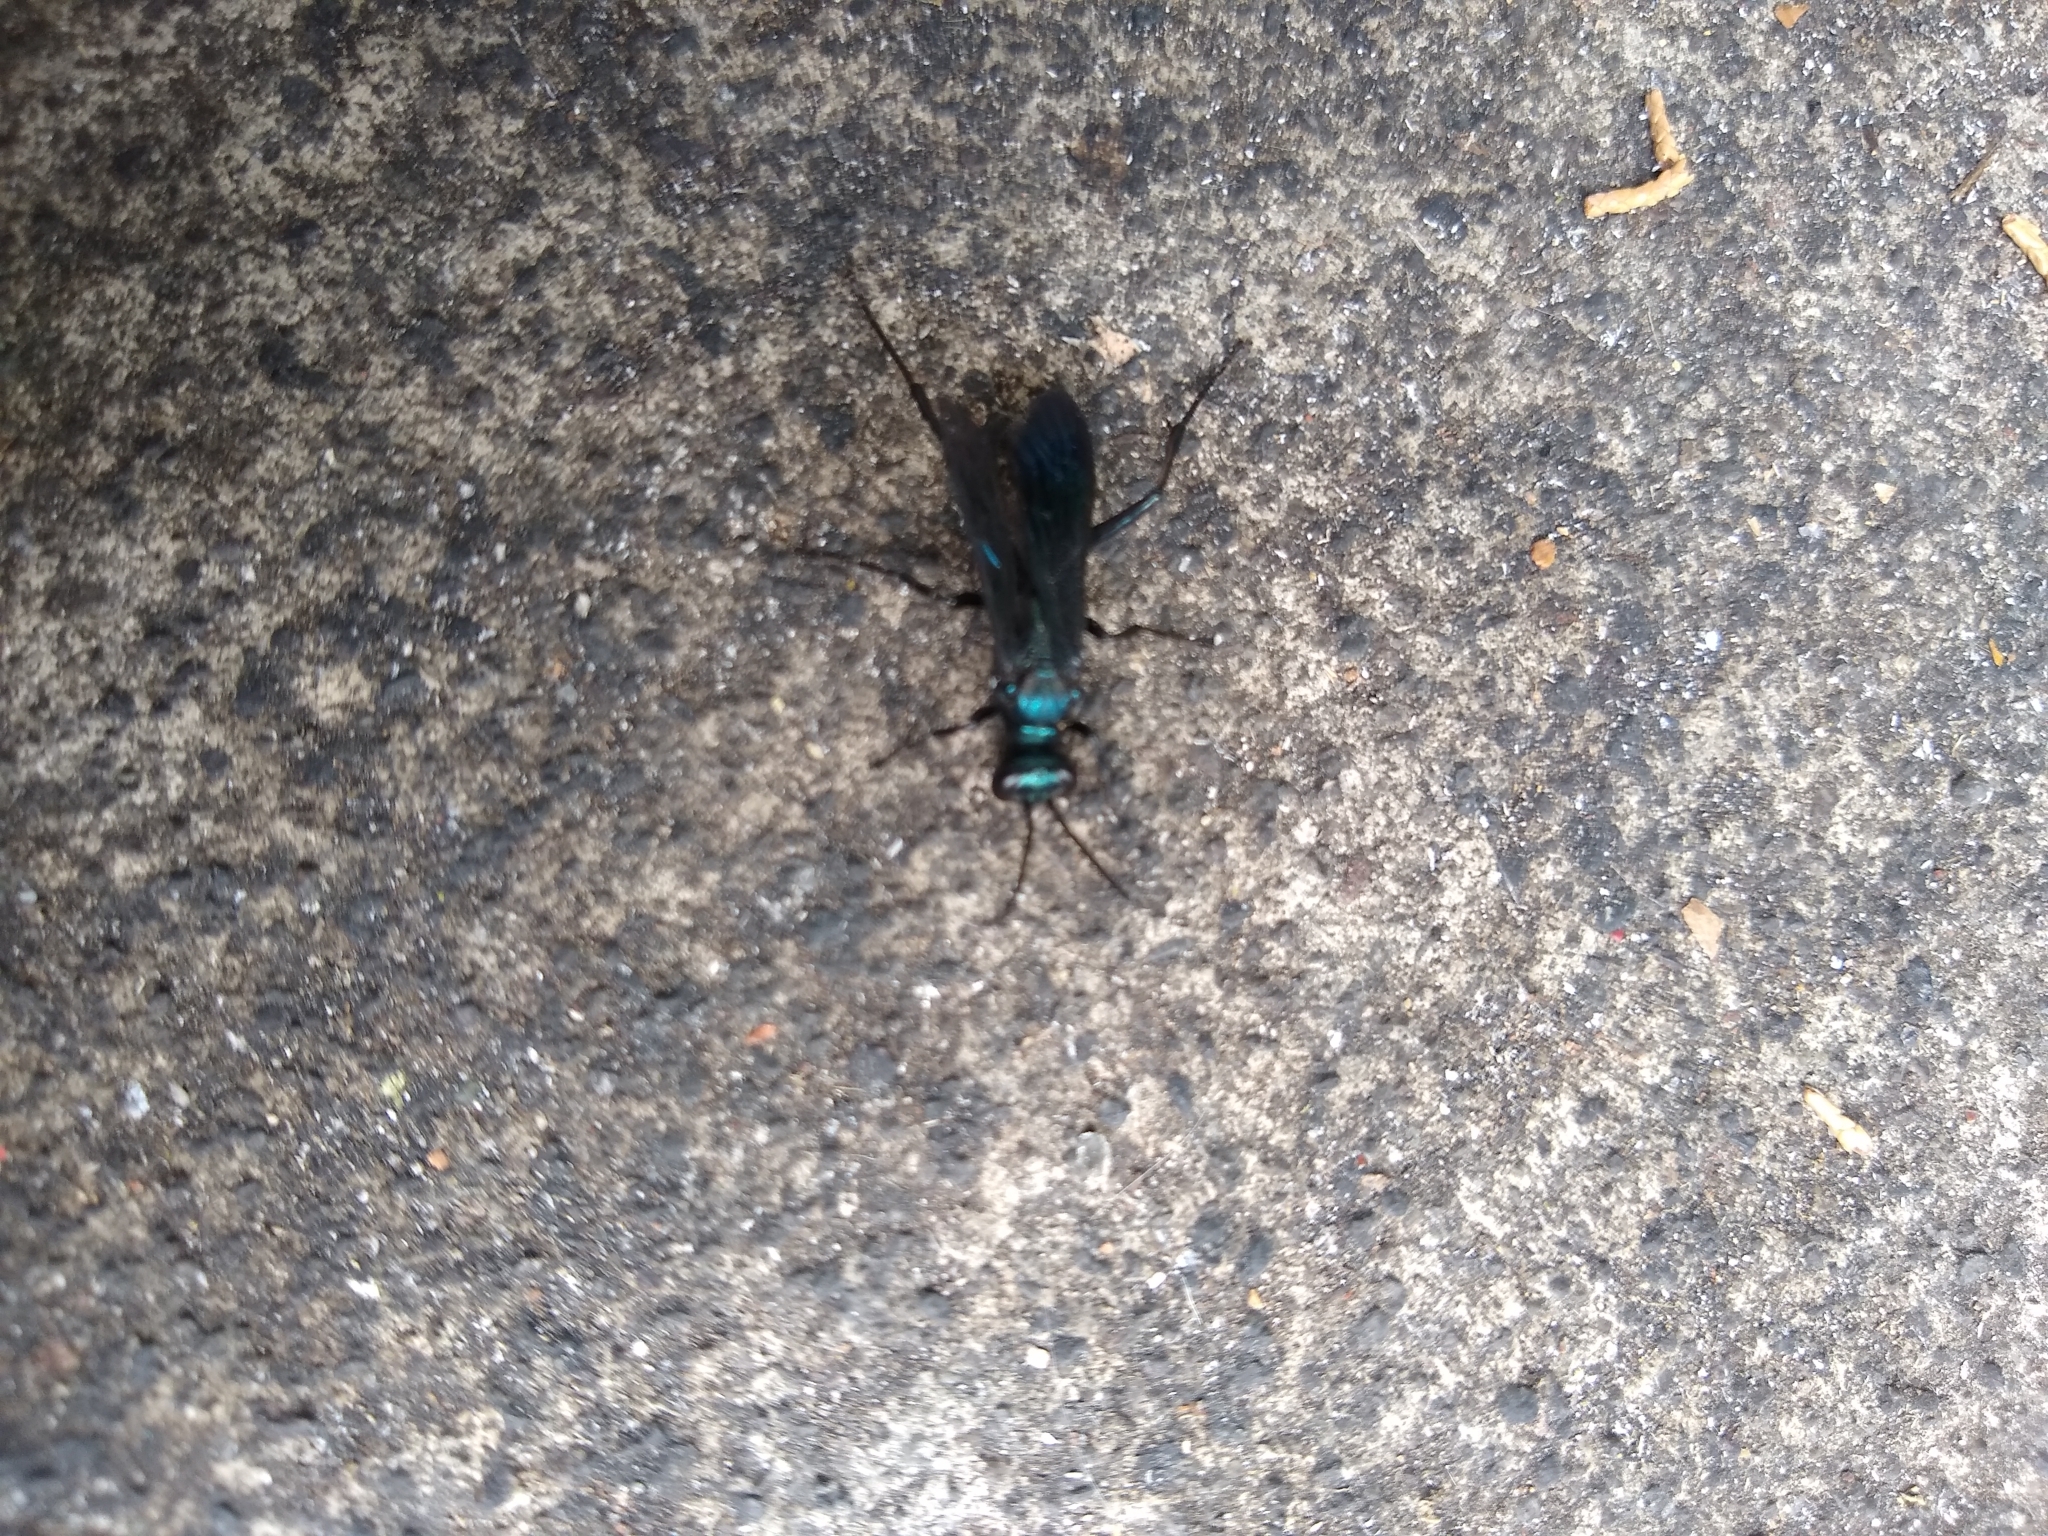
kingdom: Animalia
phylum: Arthropoda
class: Insecta
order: Hymenoptera
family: Sphecidae
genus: Chalybion
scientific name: Chalybion californicum
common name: Mud dauber
